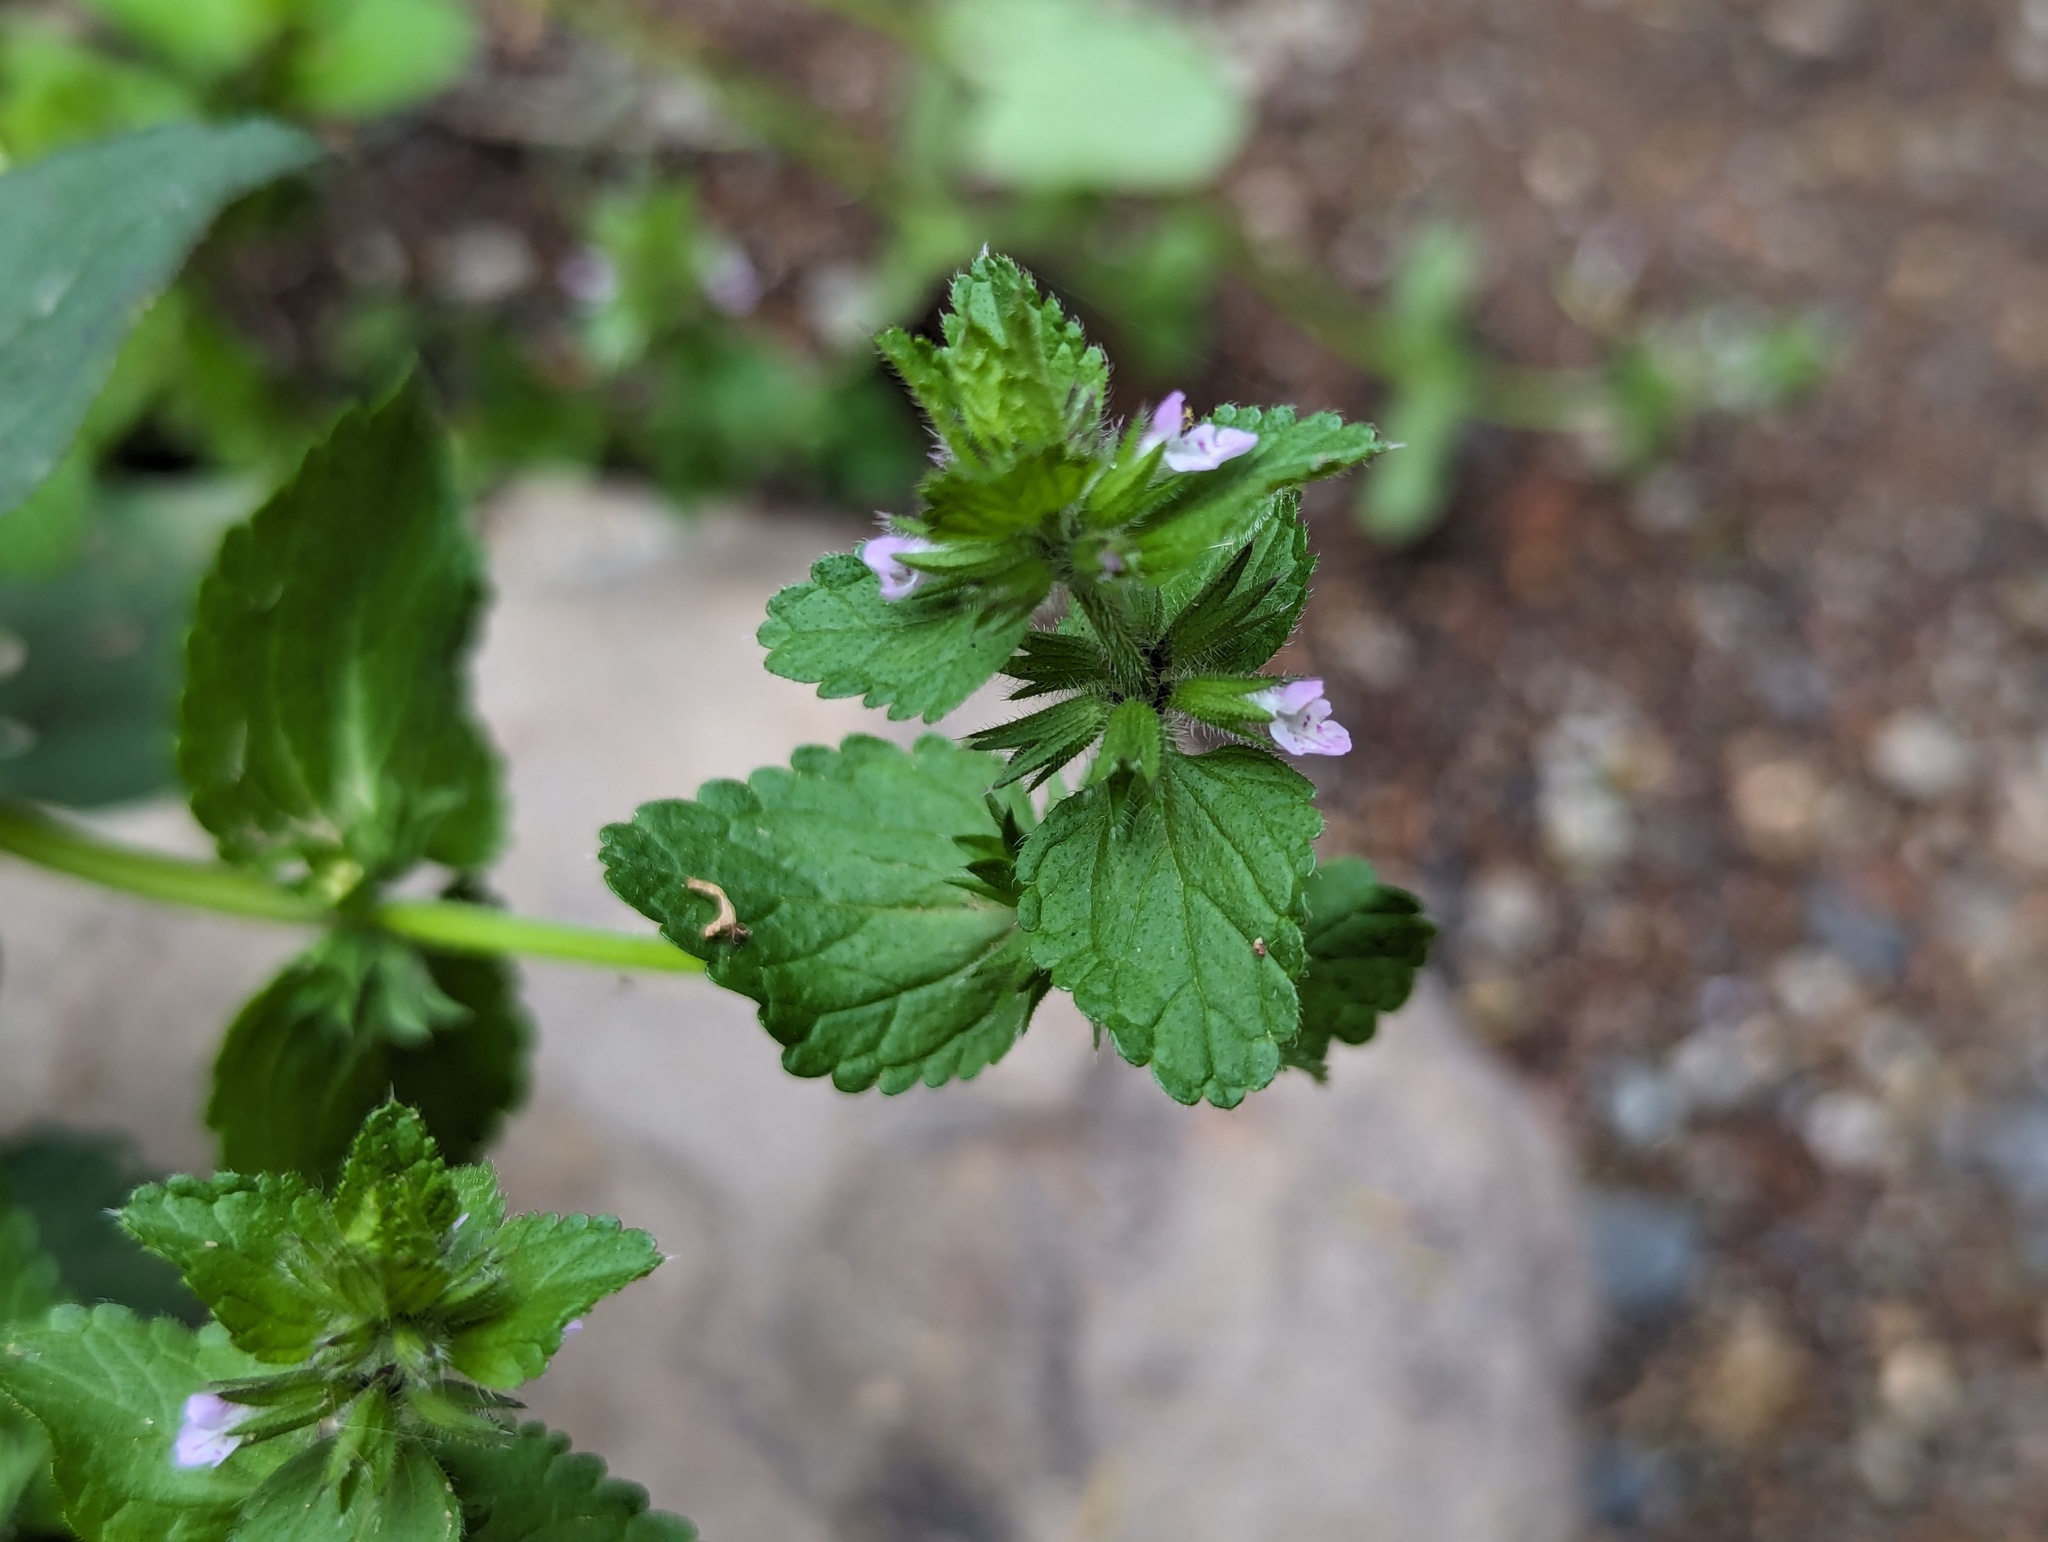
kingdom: Plantae
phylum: Tracheophyta
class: Magnoliopsida
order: Lamiales
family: Lamiaceae
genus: Stachys
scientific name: Stachys arvensis
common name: Field woundwort
